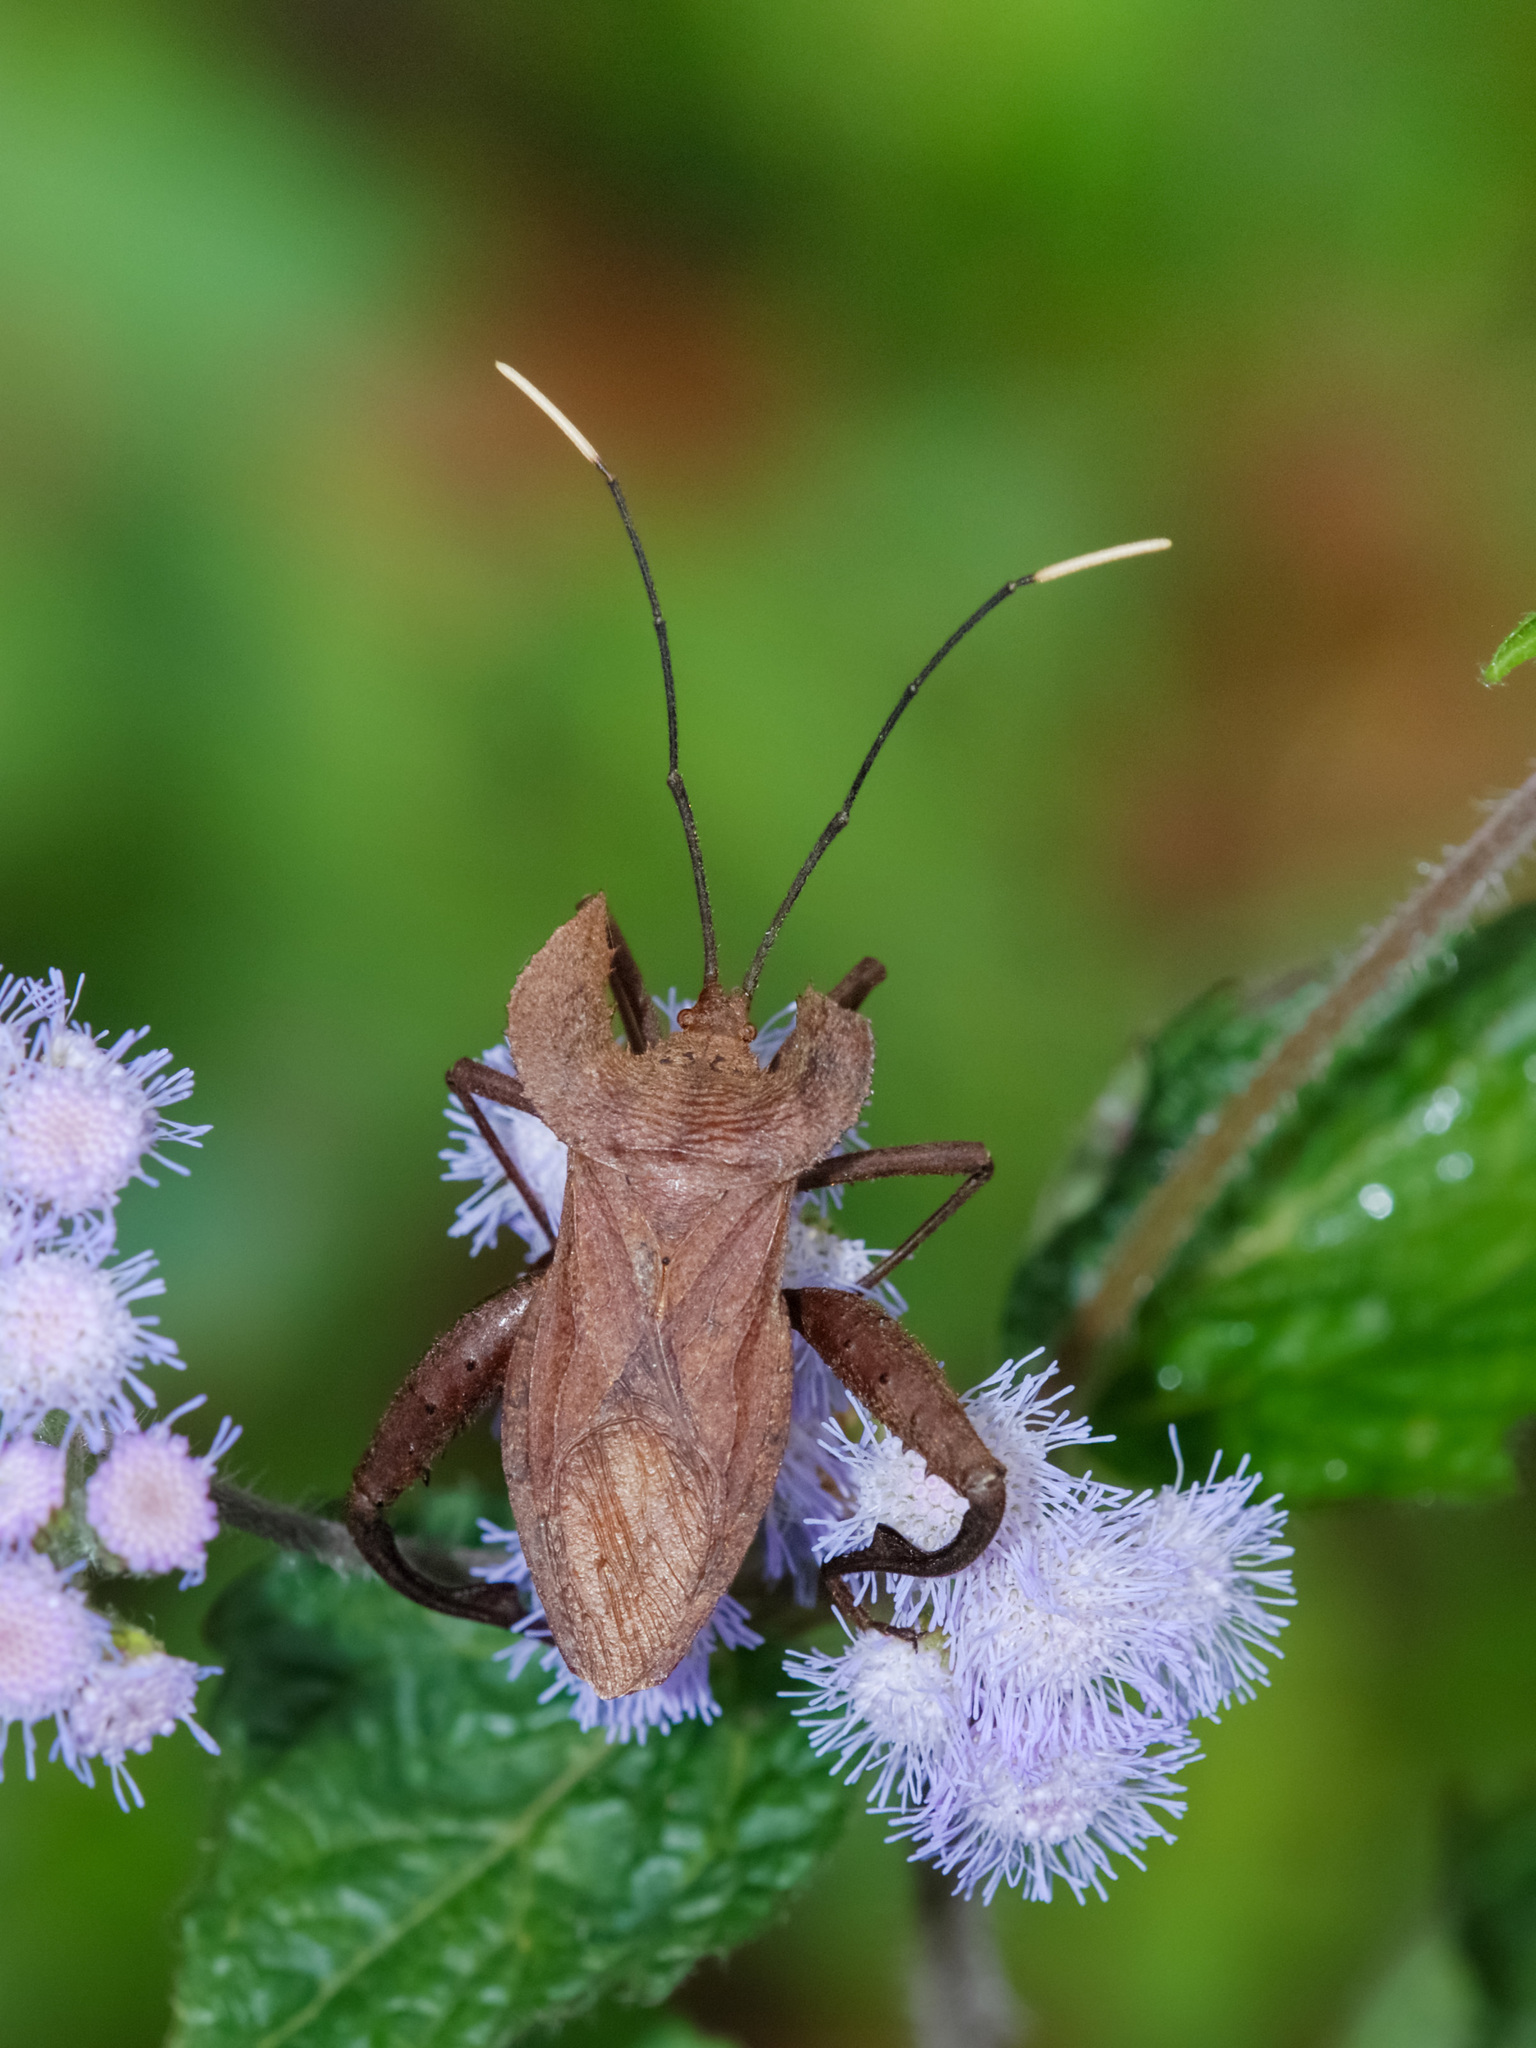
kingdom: Animalia
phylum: Arthropoda
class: Insecta
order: Hemiptera
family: Coreidae
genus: Molipteryx
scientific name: Molipteryx hardwickii
